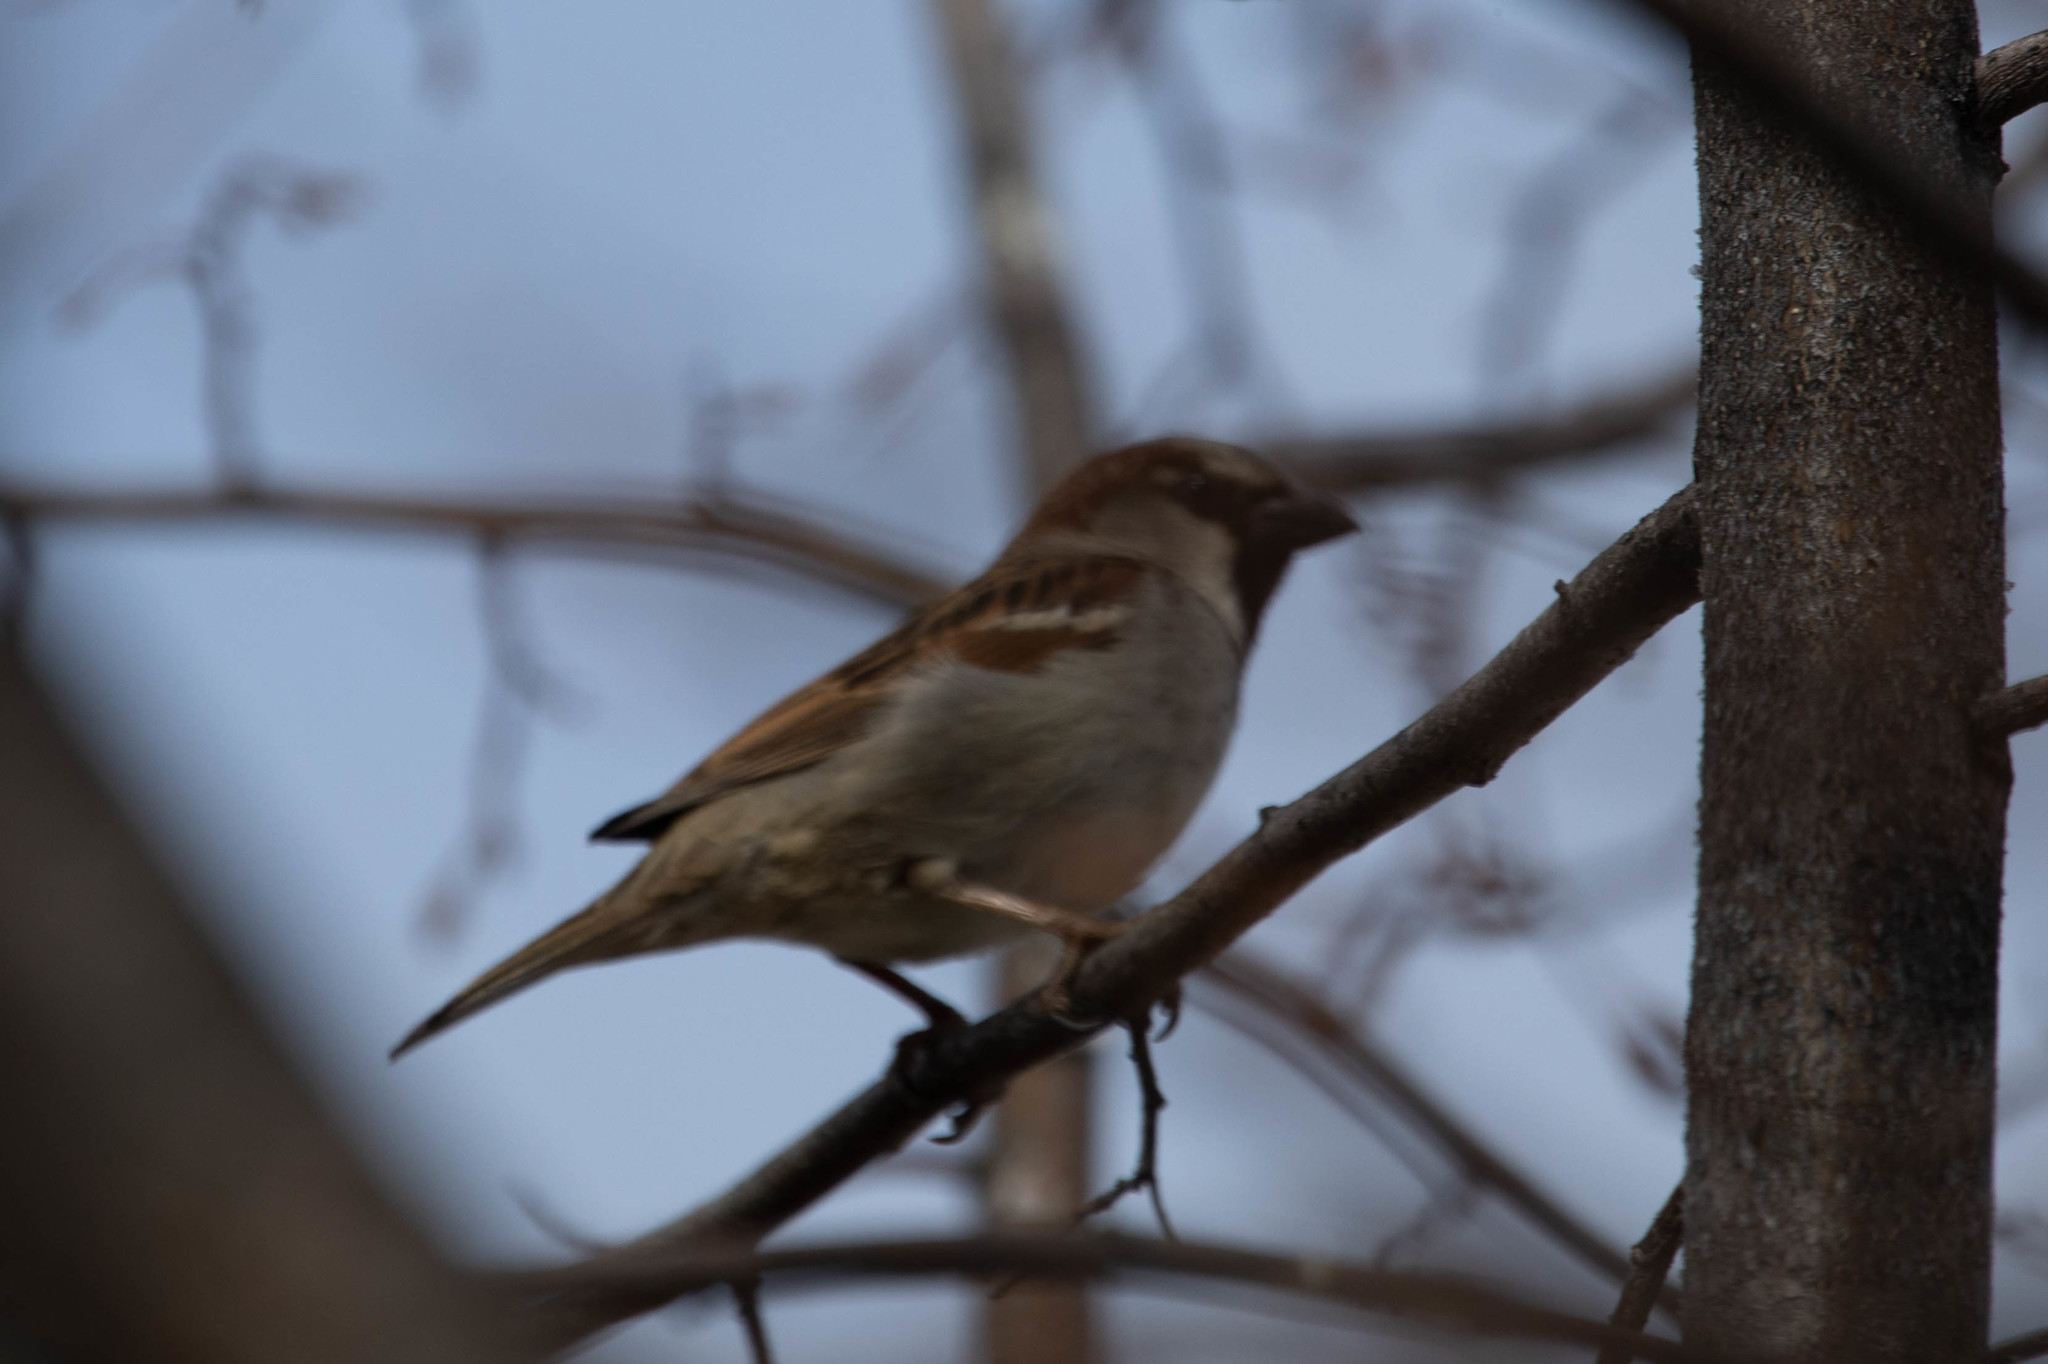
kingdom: Animalia
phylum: Chordata
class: Aves
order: Passeriformes
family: Passeridae
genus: Passer
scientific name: Passer domesticus
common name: House sparrow
